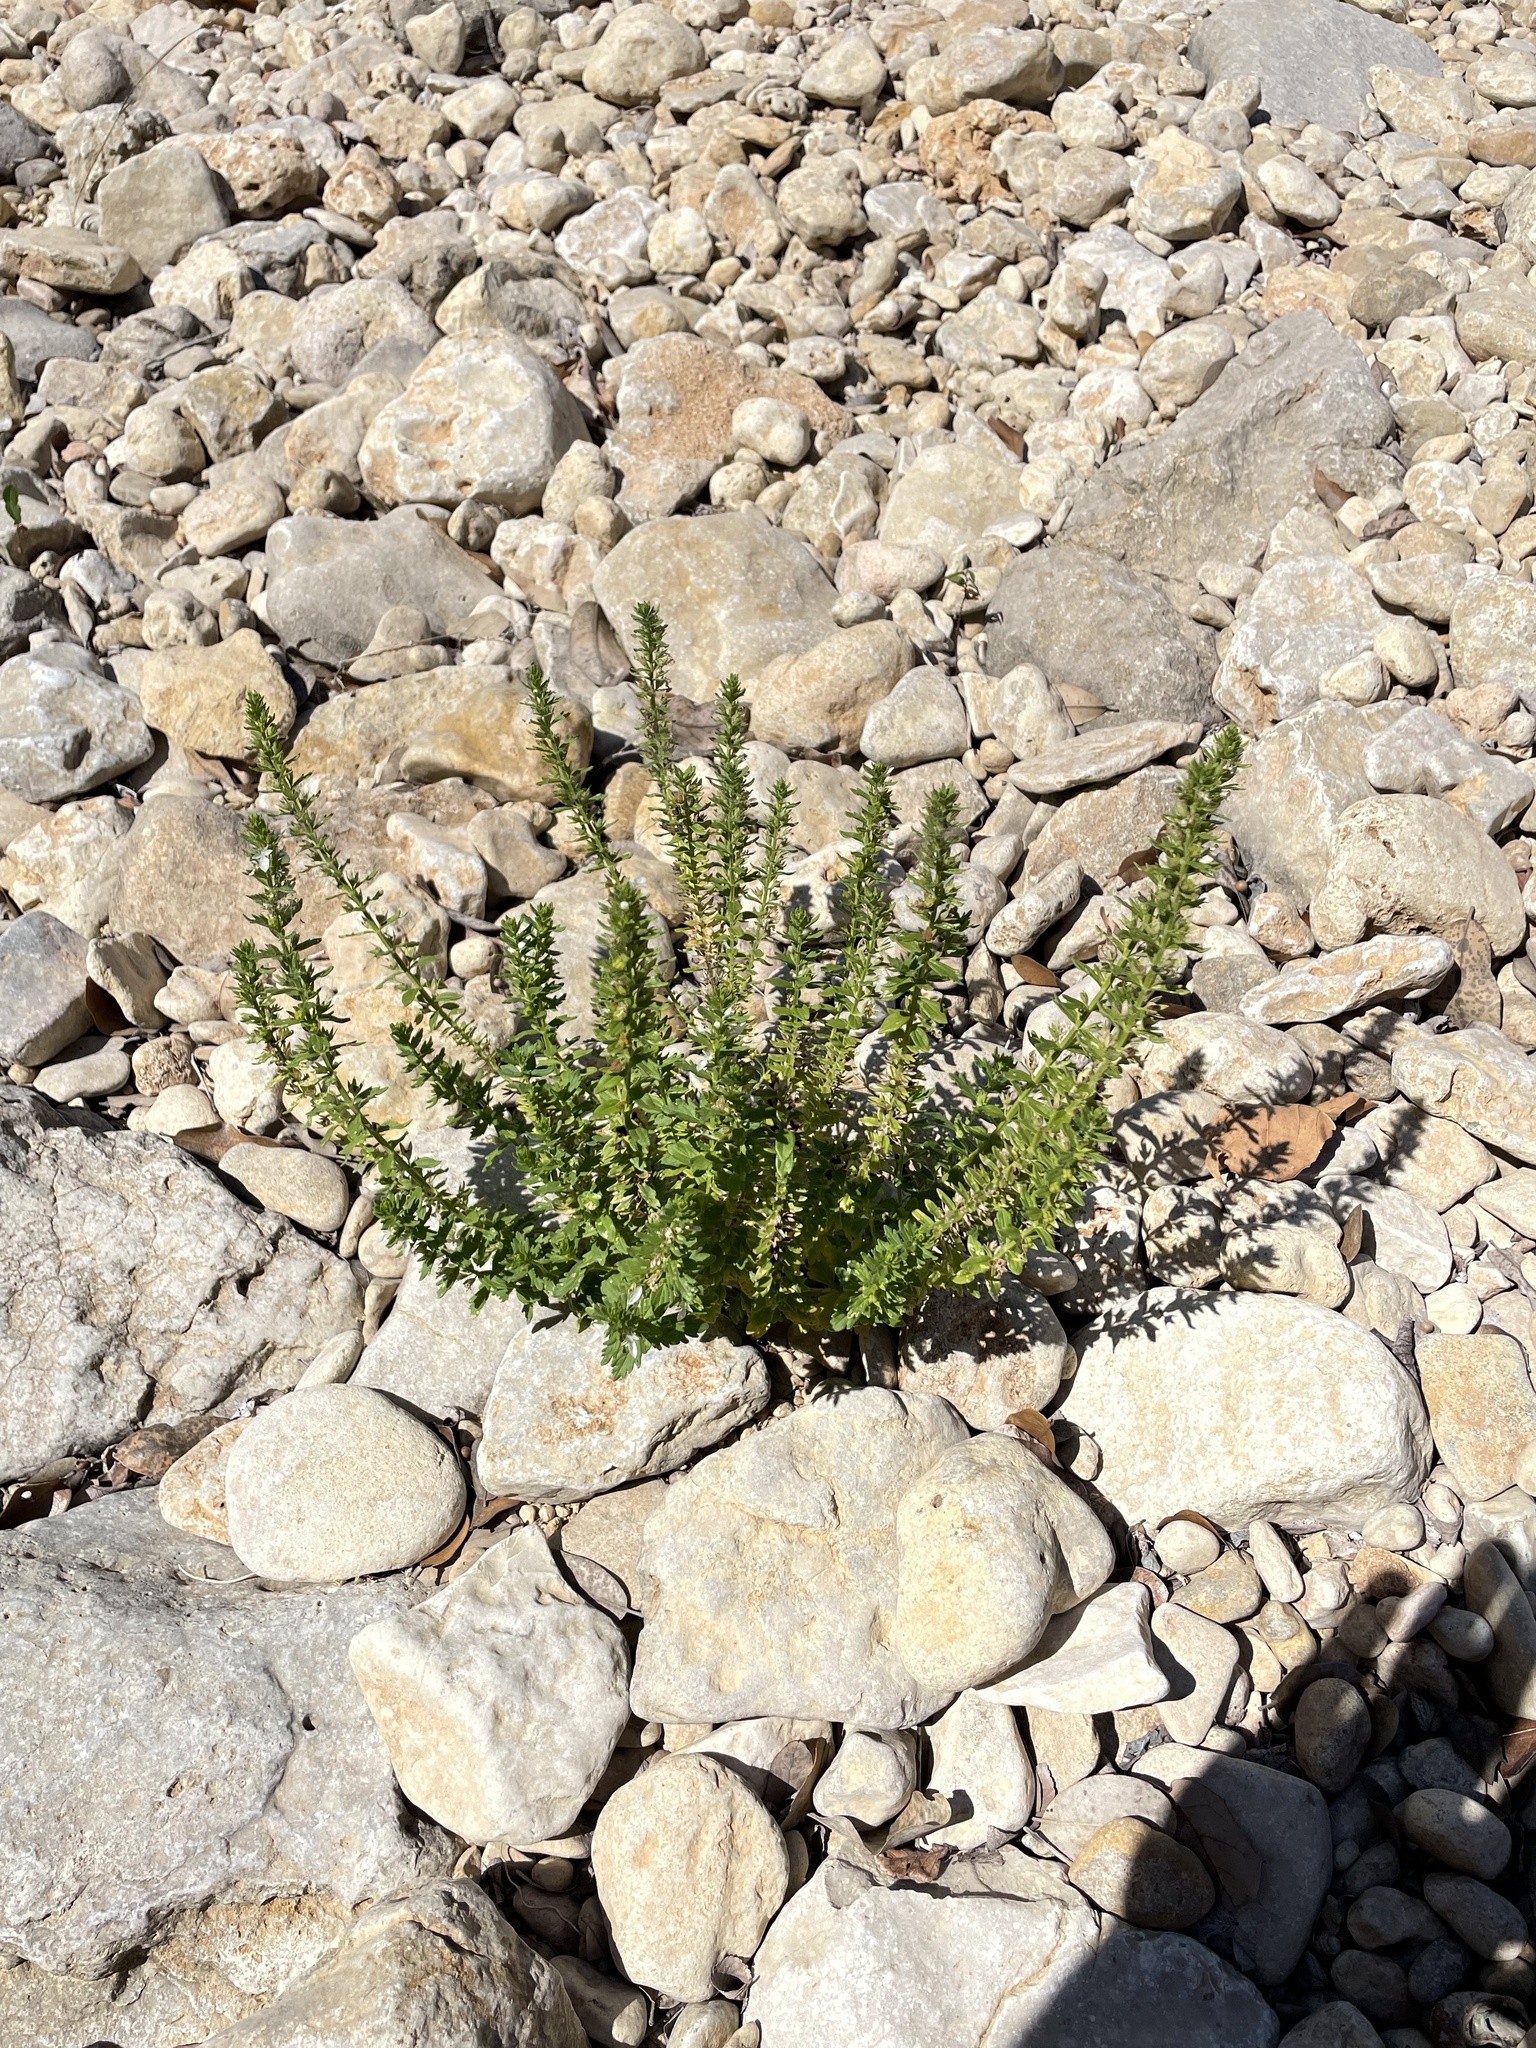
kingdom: Plantae
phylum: Tracheophyta
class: Magnoliopsida
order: Lamiales
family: Lamiaceae
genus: Teucrium
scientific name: Teucrium cubense
